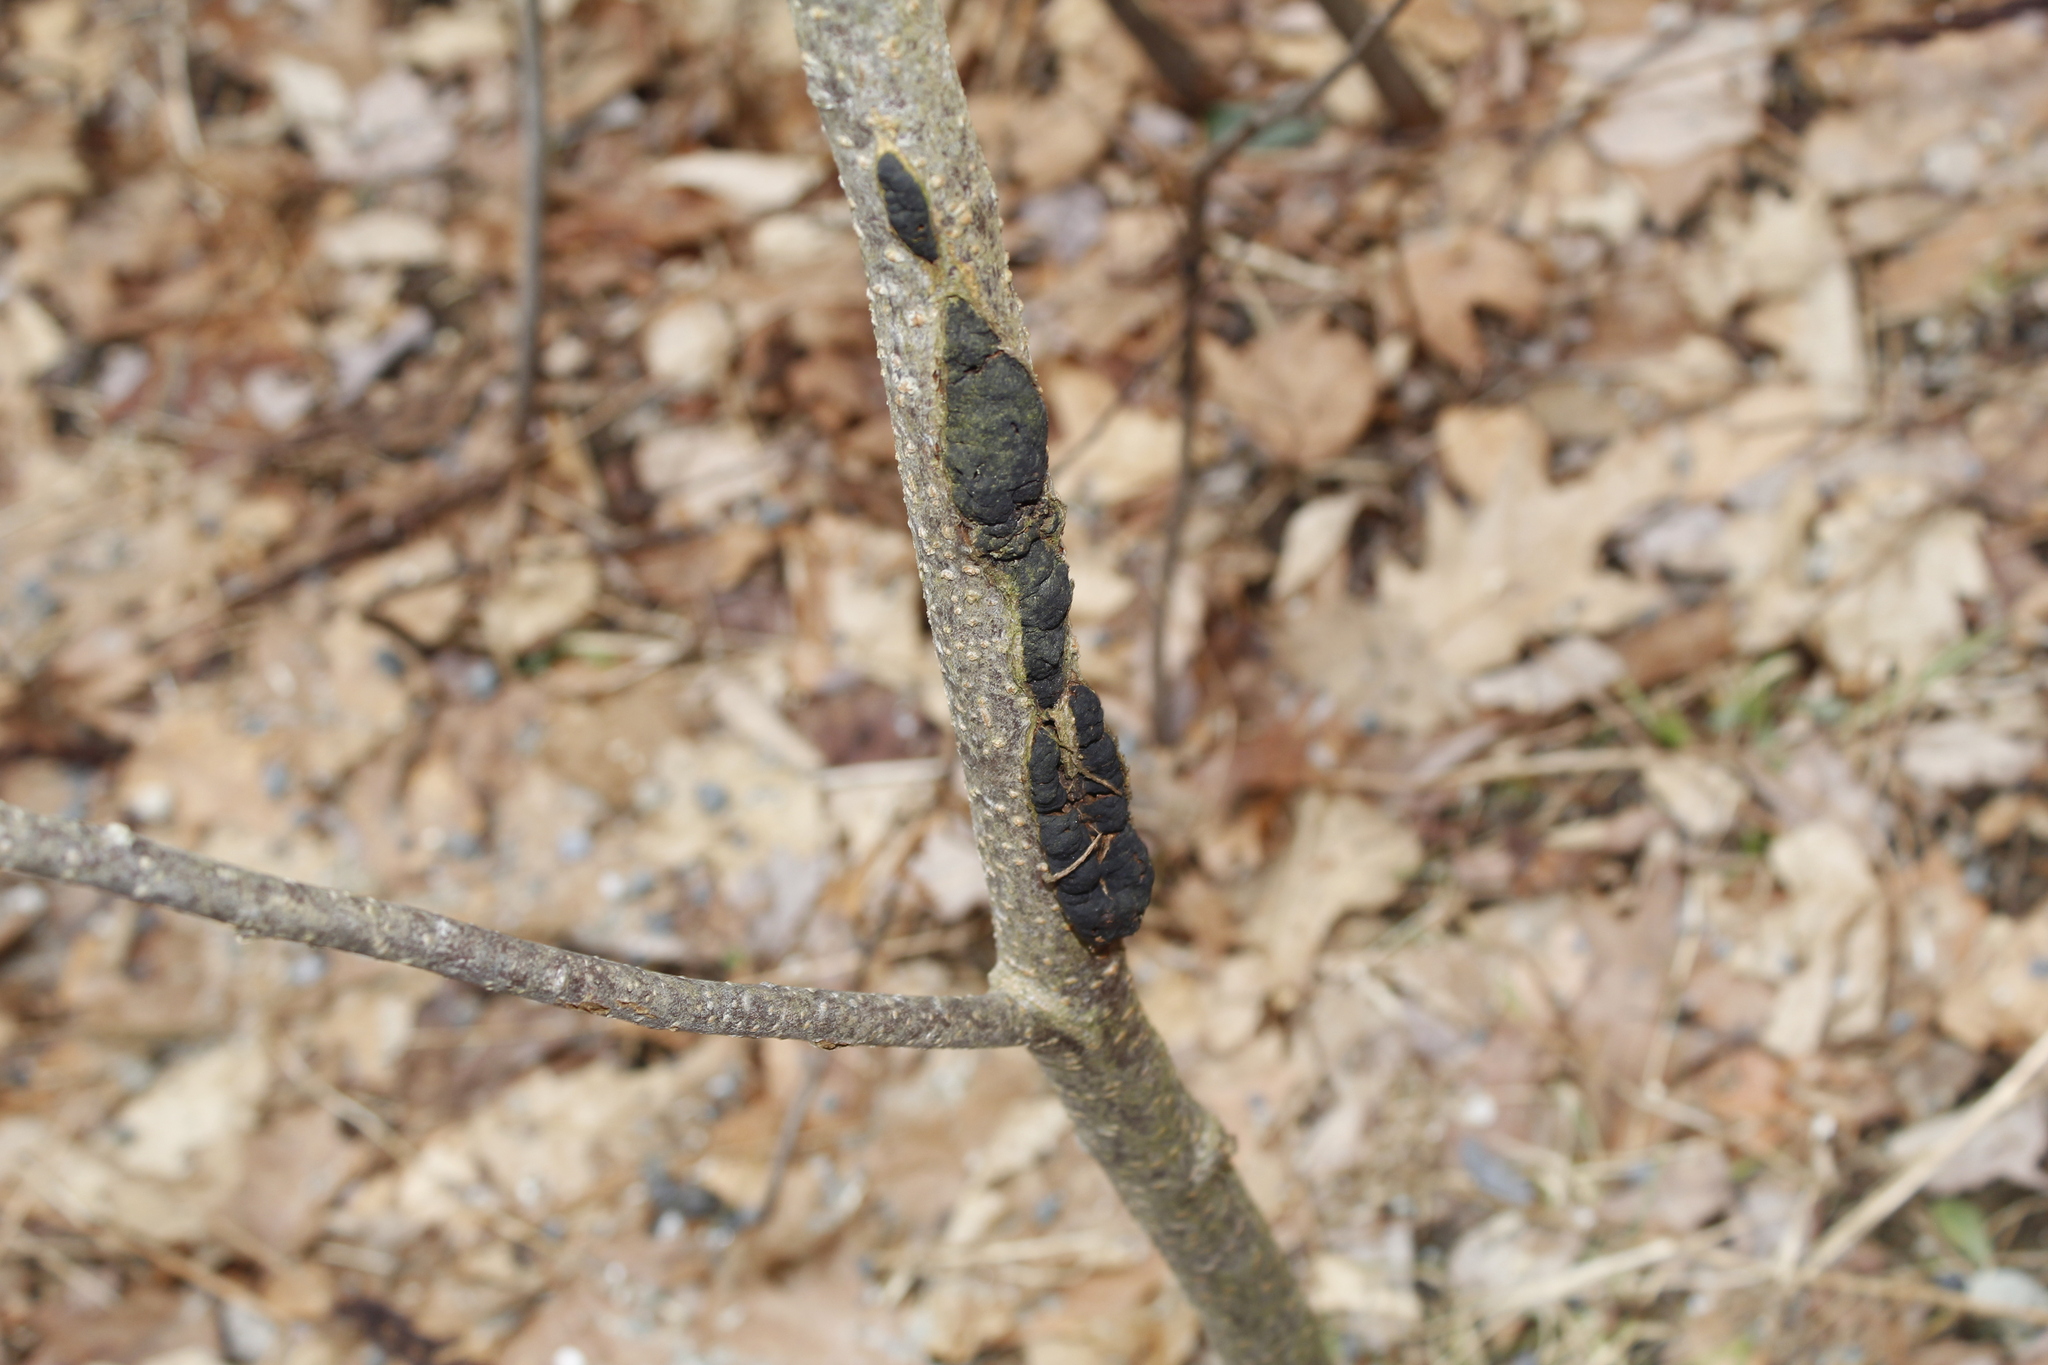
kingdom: Fungi
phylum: Ascomycota
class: Dothideomycetes
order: Venturiales
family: Venturiaceae
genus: Apiosporina
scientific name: Apiosporina morbosa
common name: Black knot
